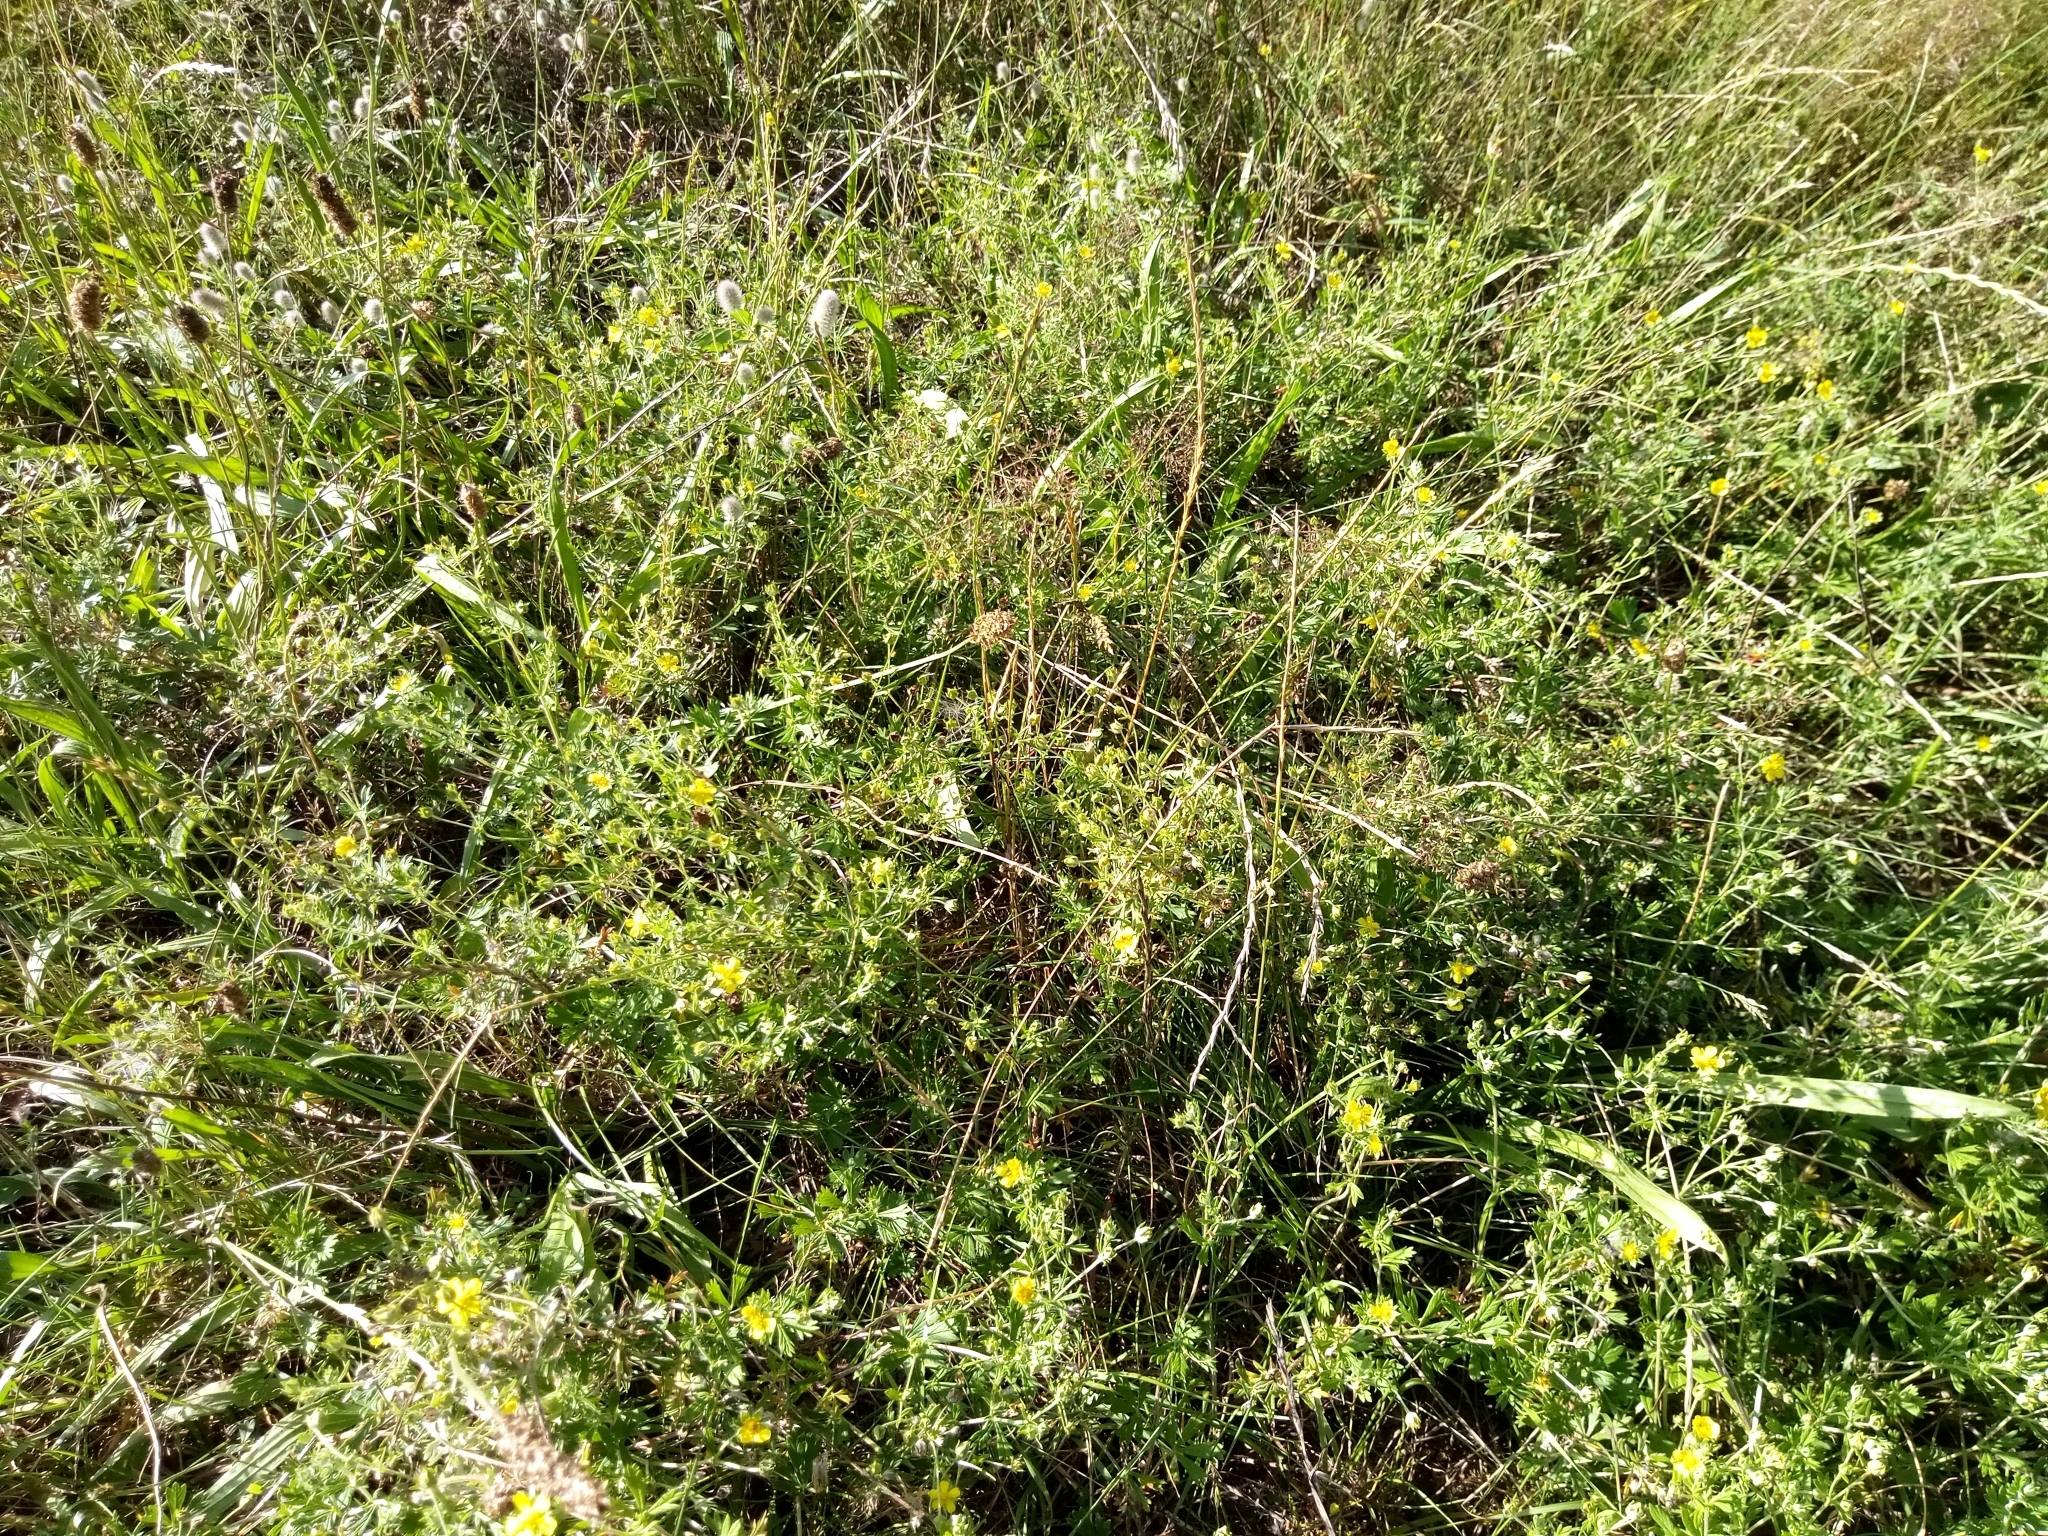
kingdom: Plantae
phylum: Tracheophyta
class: Magnoliopsida
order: Rosales
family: Rosaceae
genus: Potentilla
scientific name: Potentilla argentea
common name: Hoary cinquefoil
